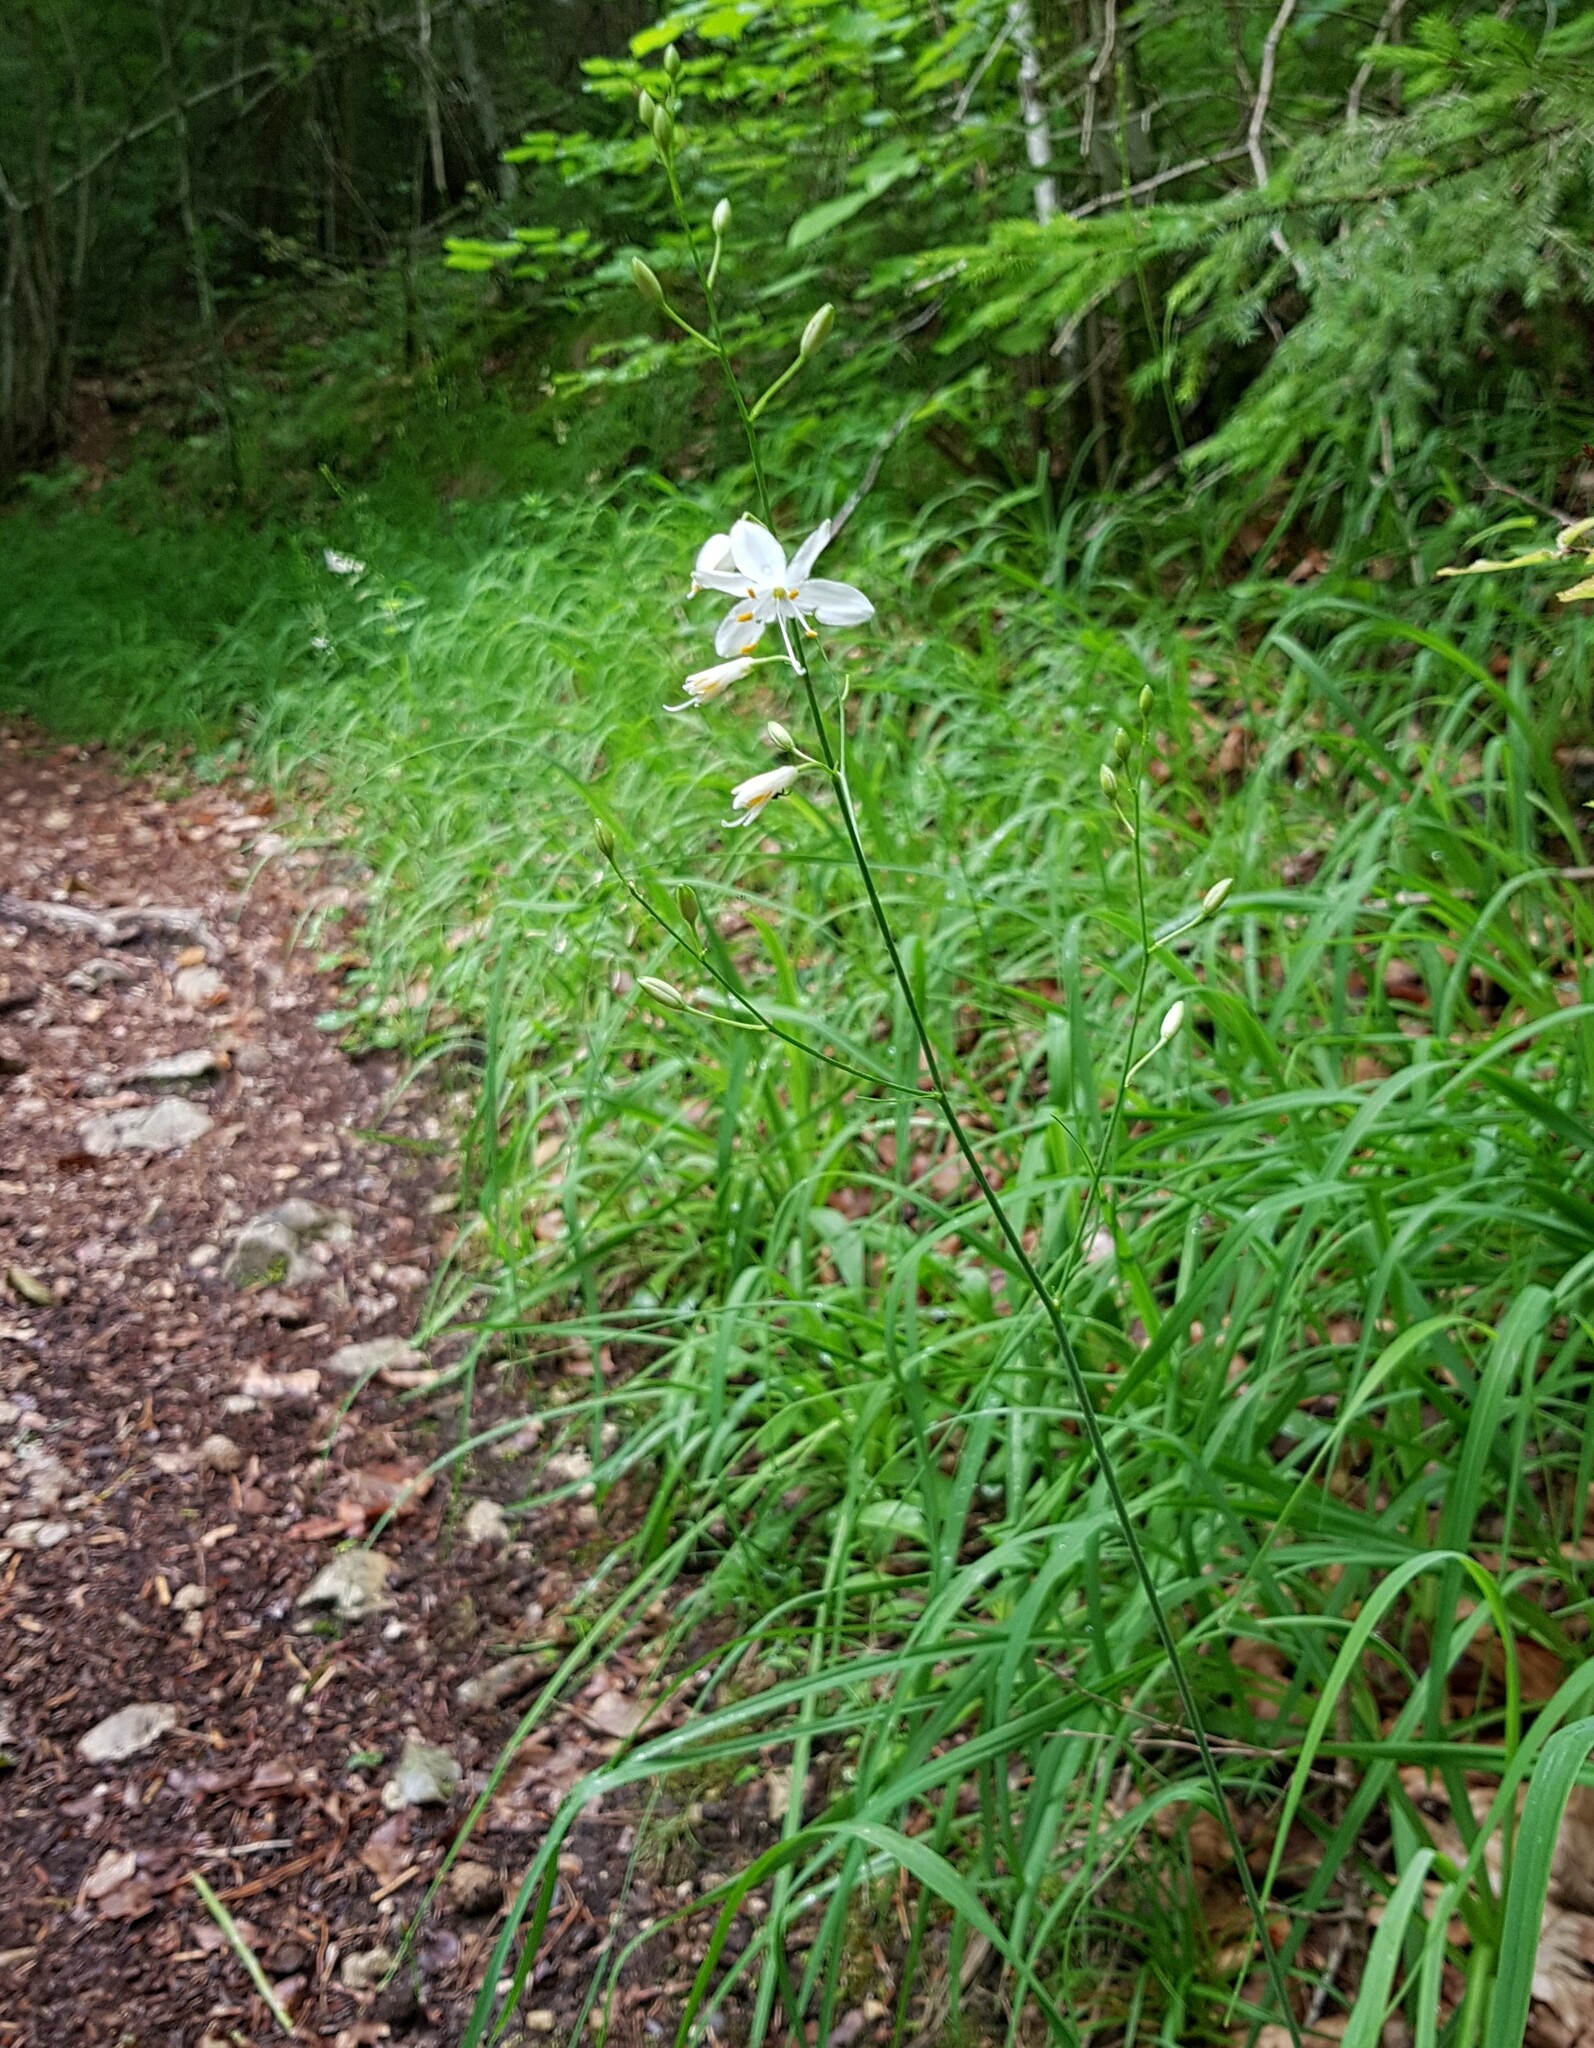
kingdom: Plantae
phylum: Tracheophyta
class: Liliopsida
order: Asparagales
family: Asparagaceae
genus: Anthericum
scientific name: Anthericum ramosum
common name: Branched st. bernard's-lily
